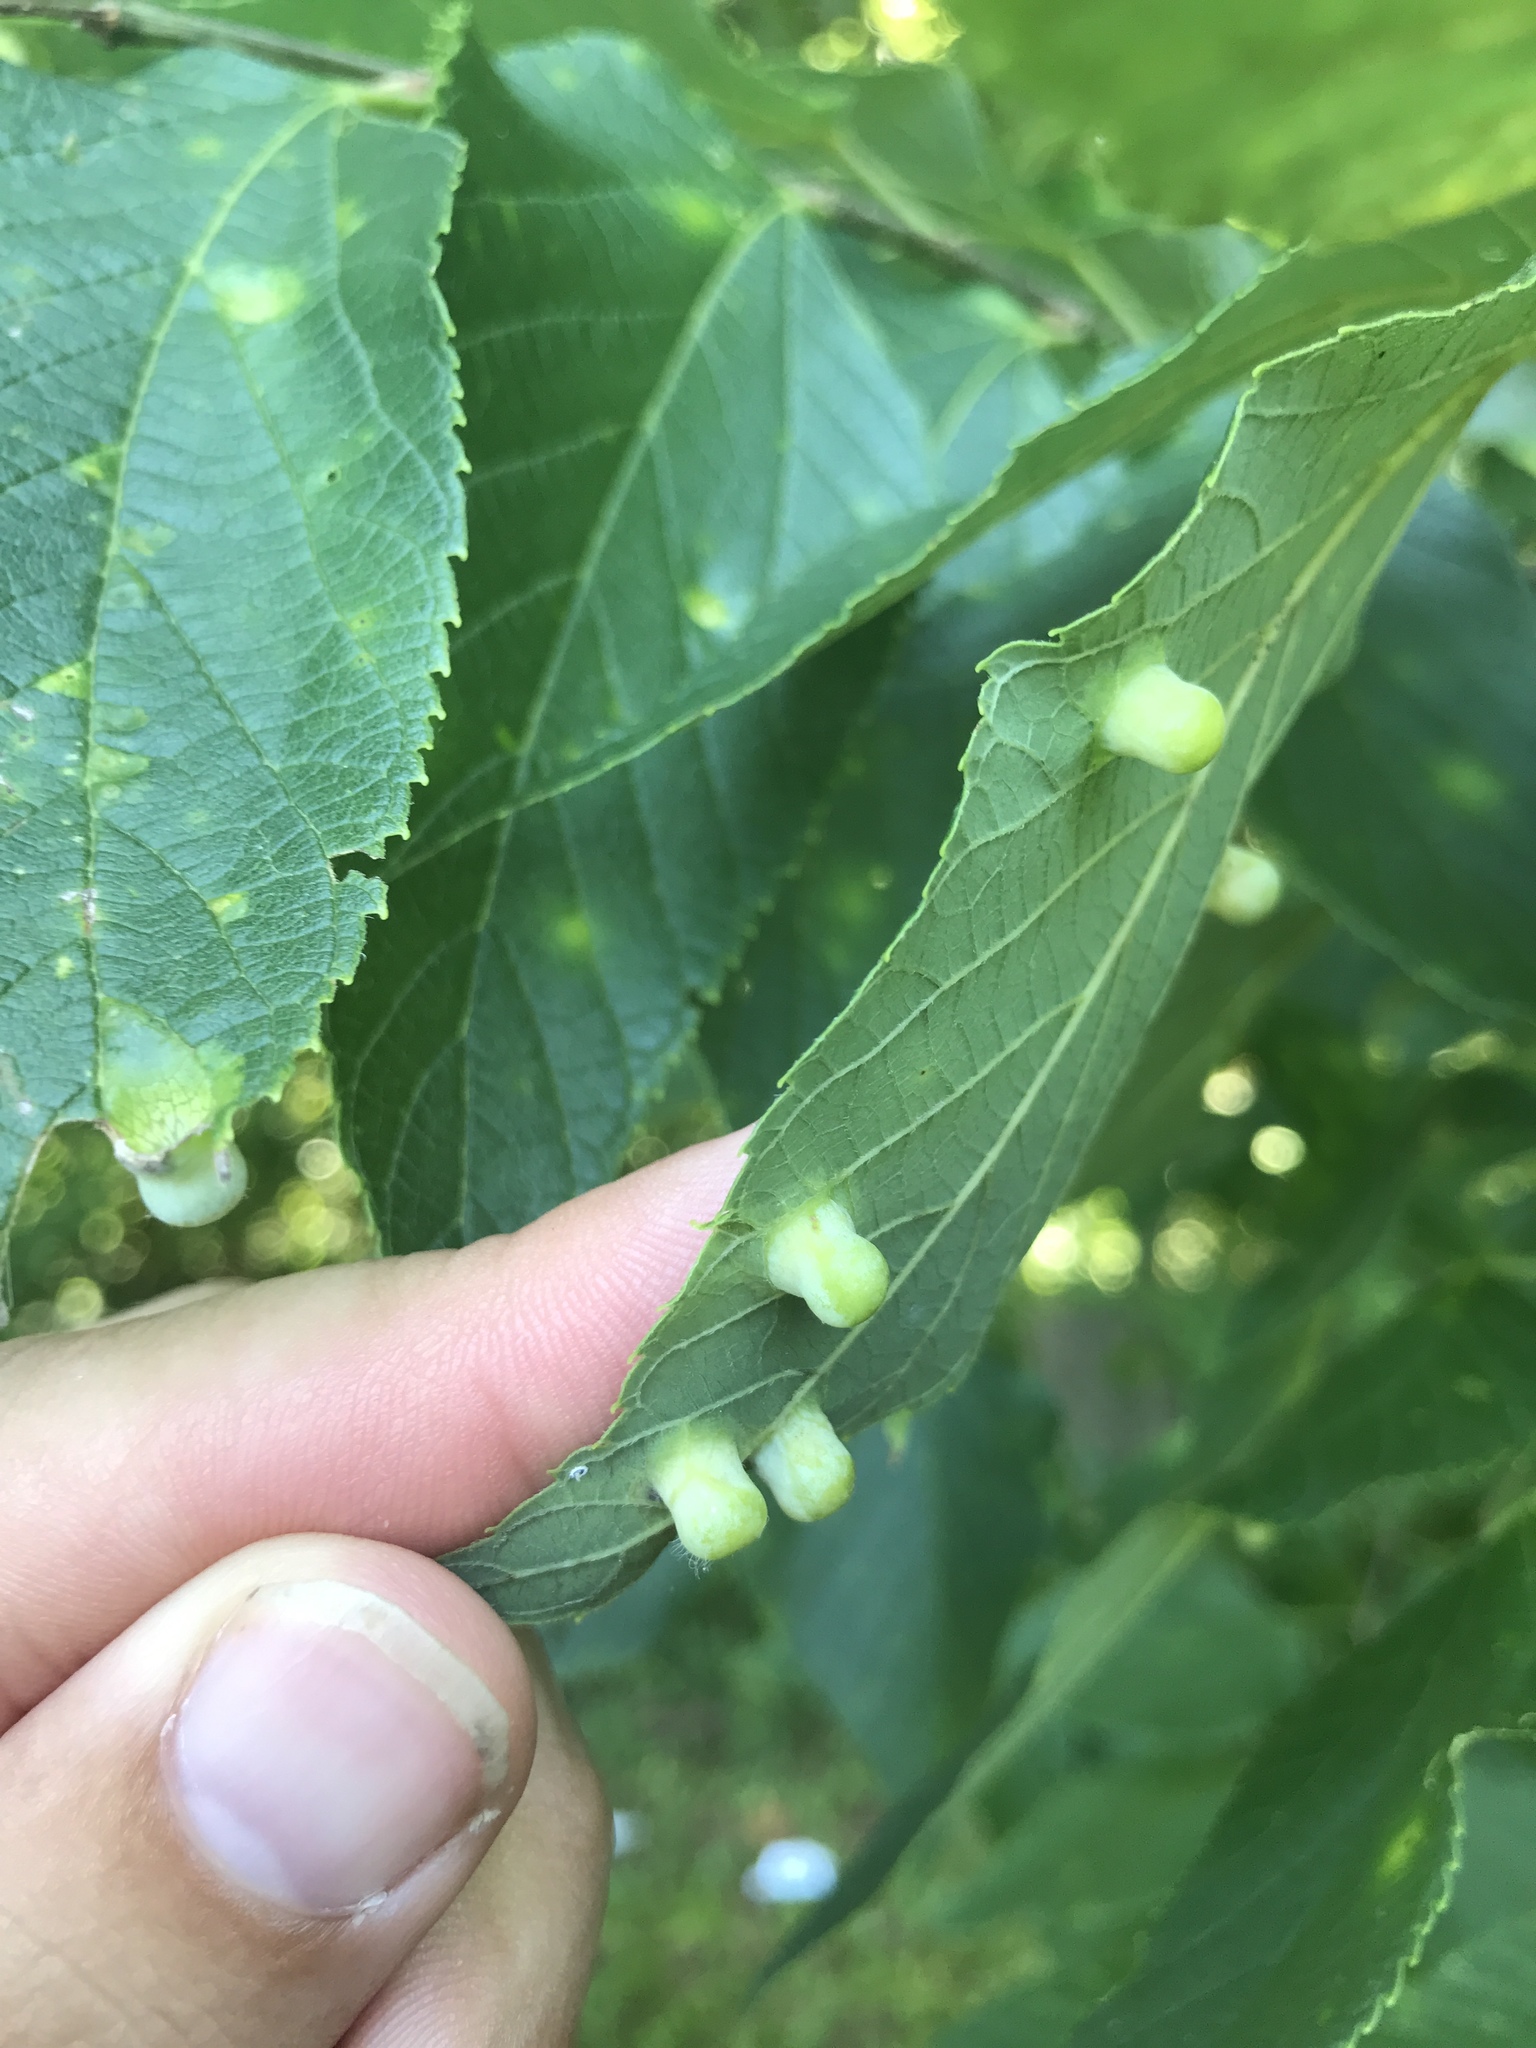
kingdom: Animalia
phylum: Arthropoda
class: Insecta
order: Hemiptera
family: Aphalaridae
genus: Pachypsylla
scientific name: Pachypsylla celtidismamma
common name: Hackberry nipplegall psyllid
